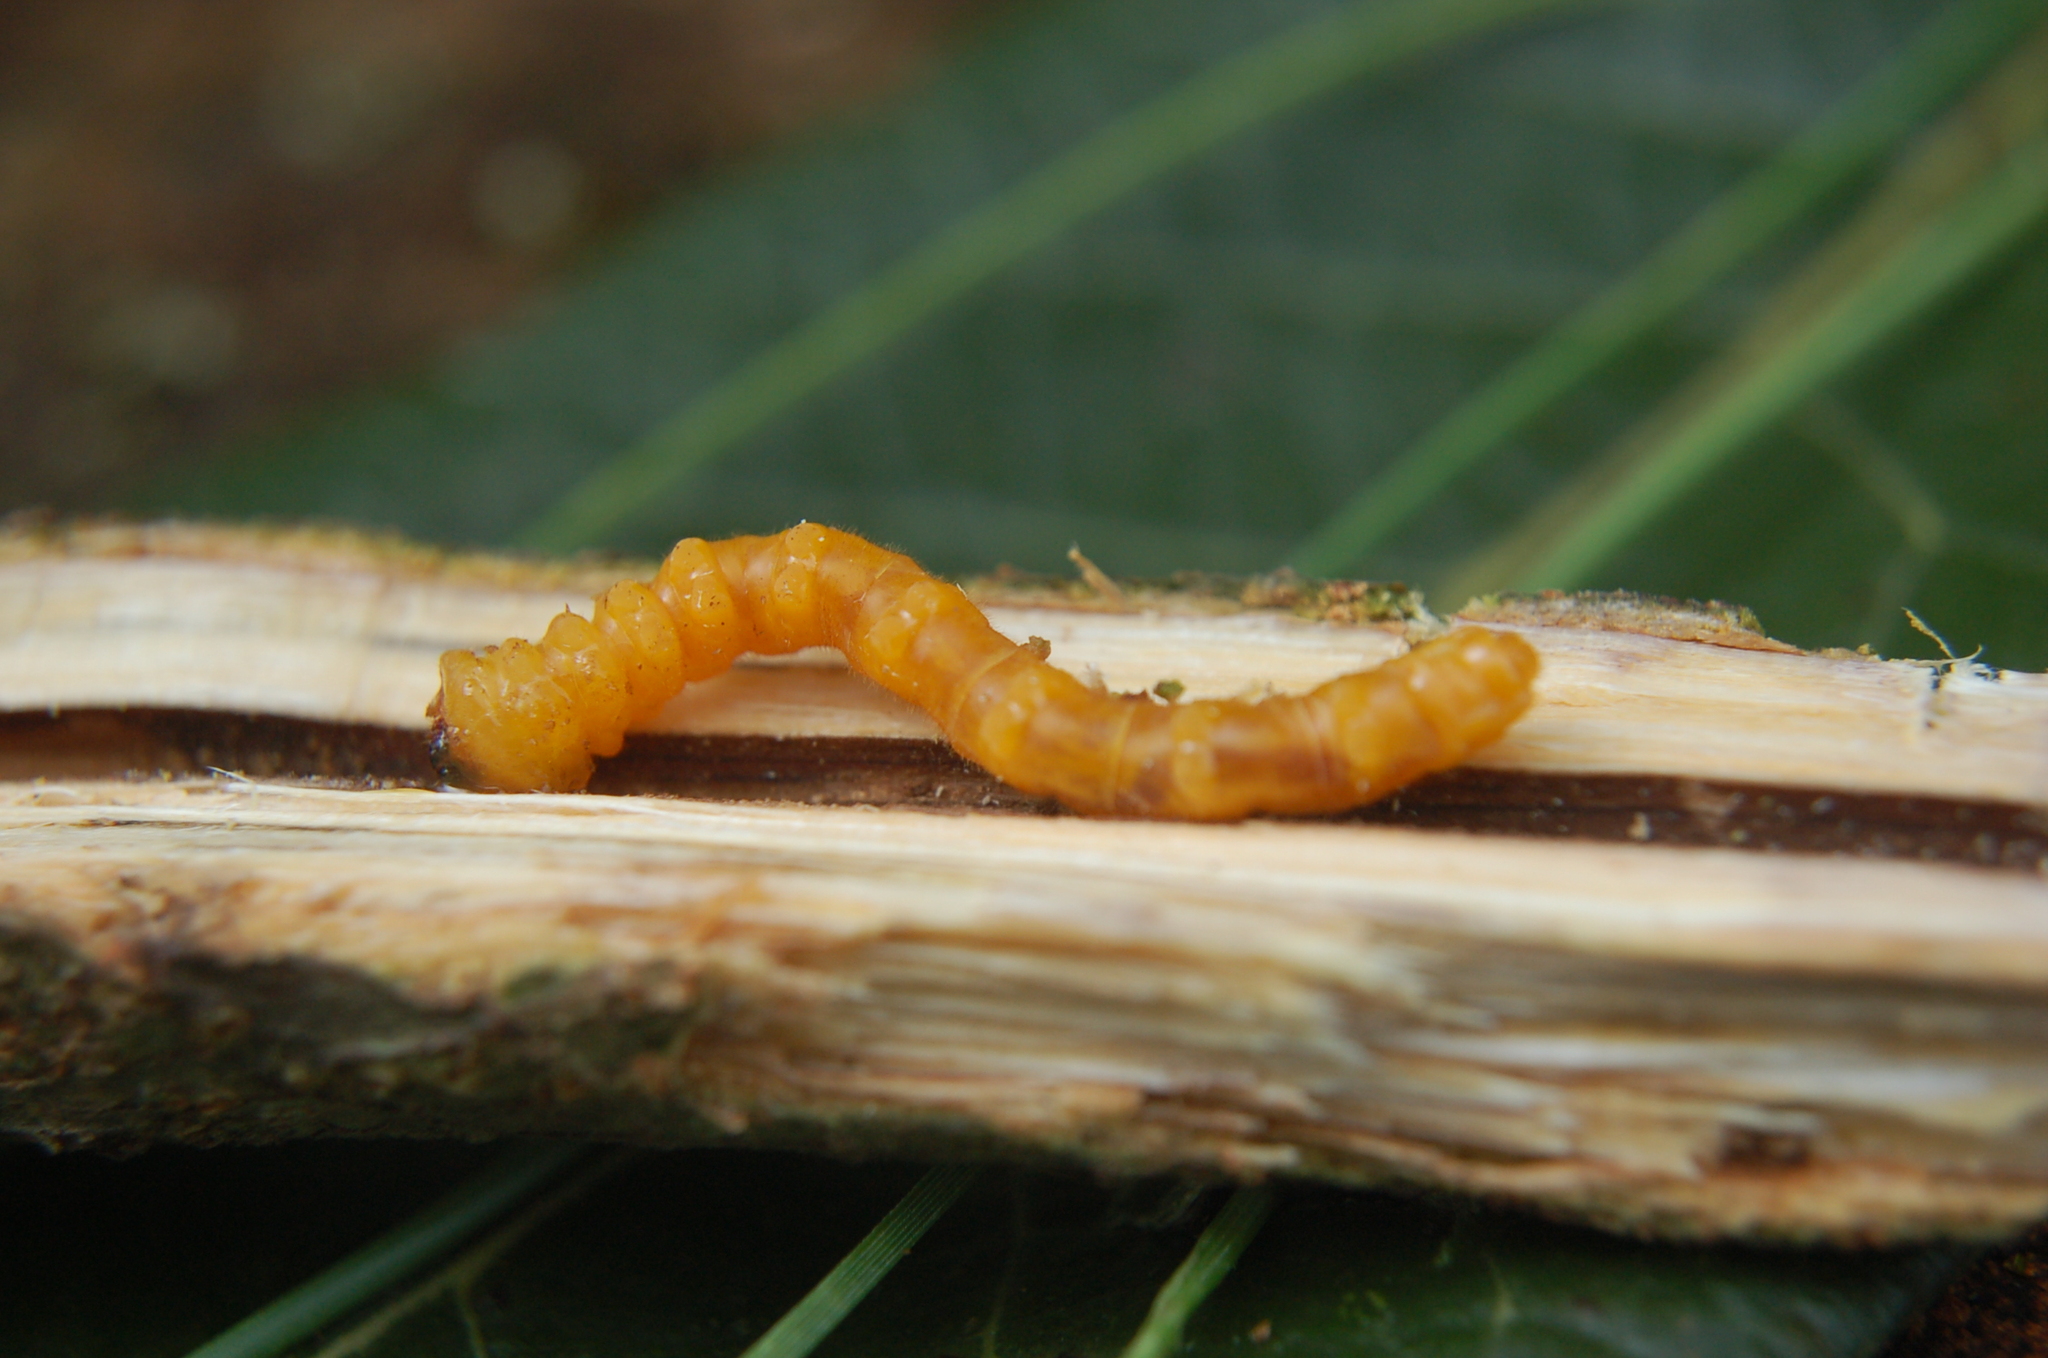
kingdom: Animalia
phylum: Arthropoda
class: Insecta
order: Coleoptera
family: Cerambycidae
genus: Rhathymoscelis
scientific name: Rhathymoscelis haldemanii
